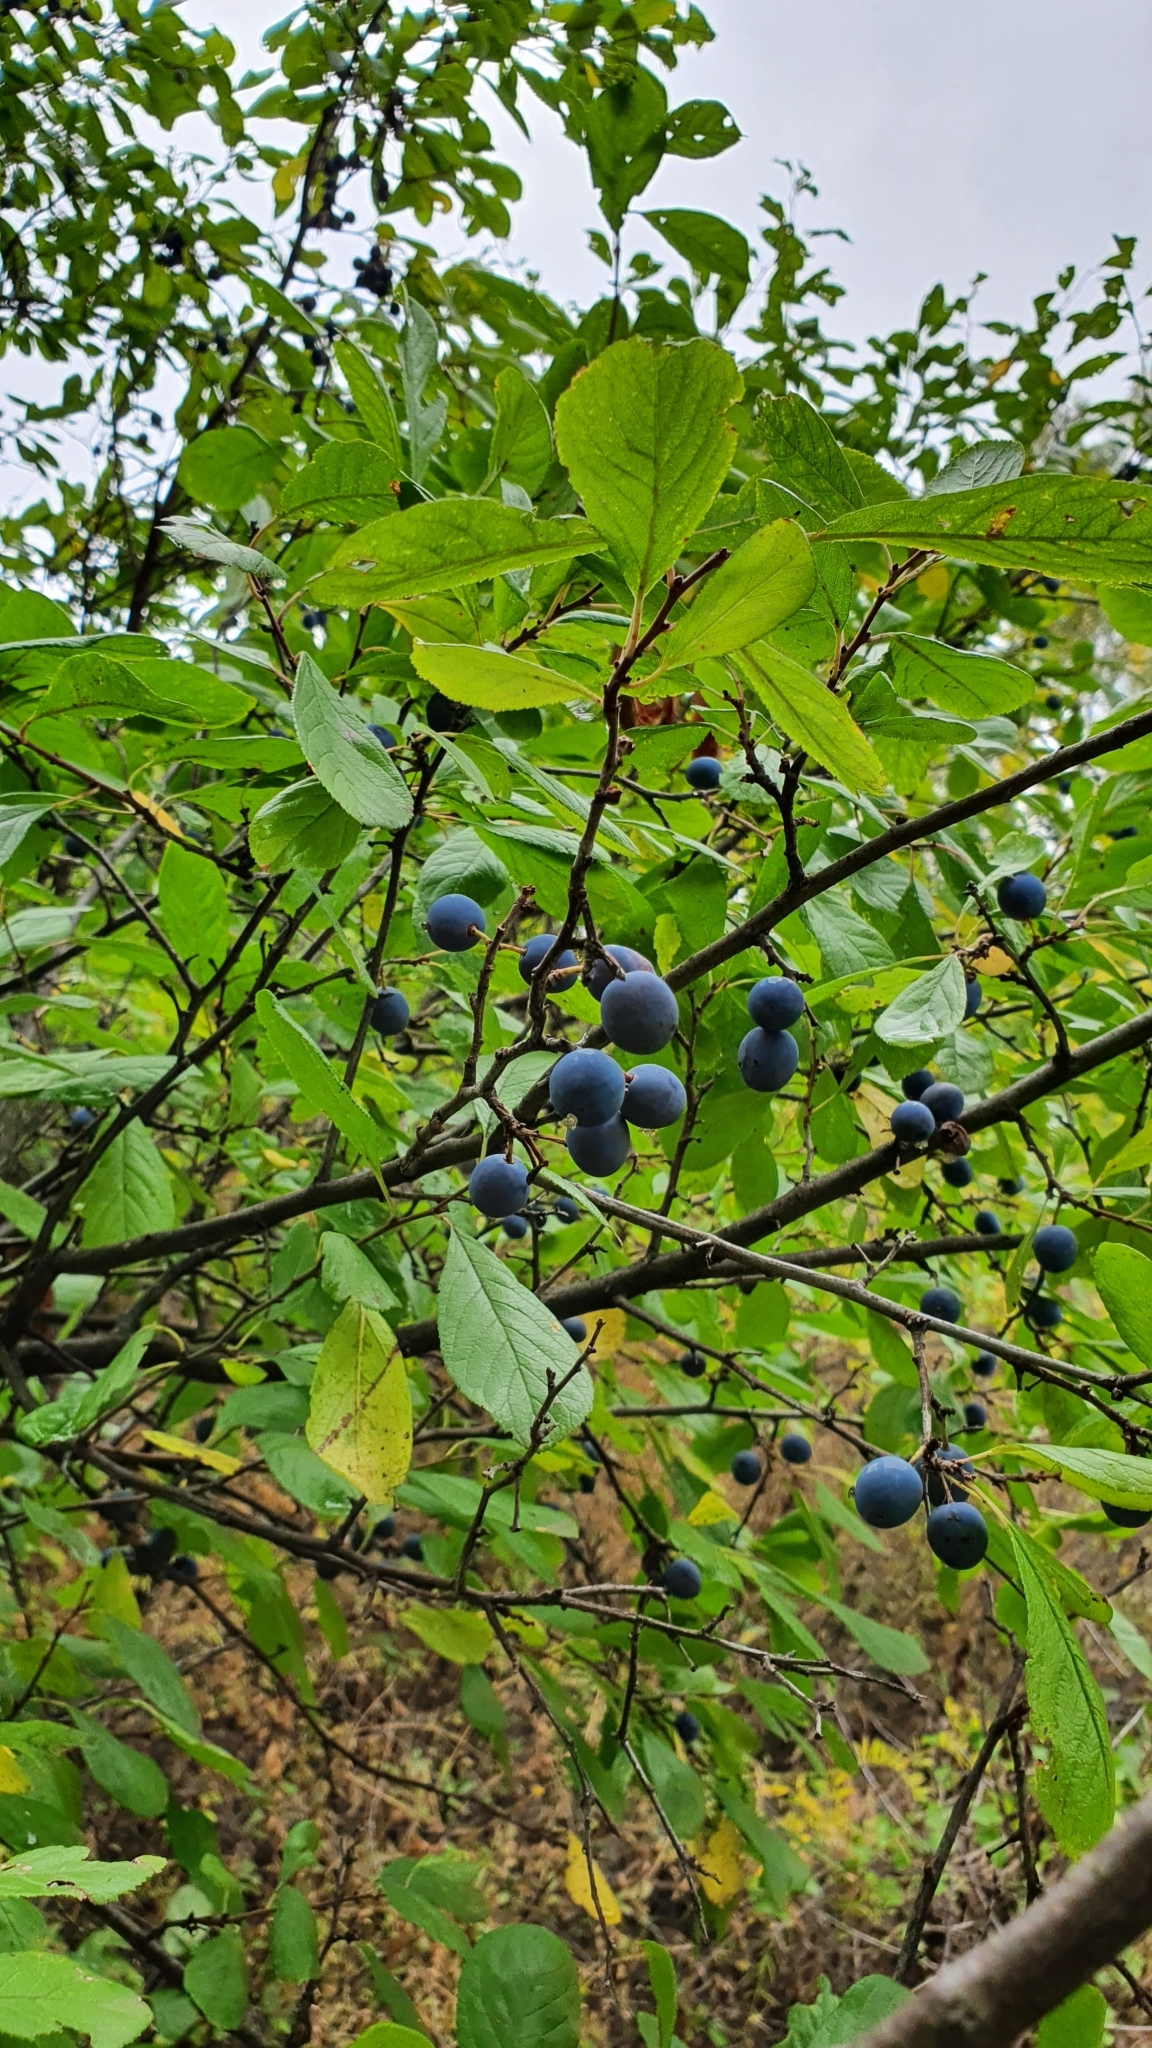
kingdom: Plantae
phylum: Tracheophyta
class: Magnoliopsida
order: Rosales
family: Rosaceae
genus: Prunus
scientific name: Prunus spinosa
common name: Blackthorn
